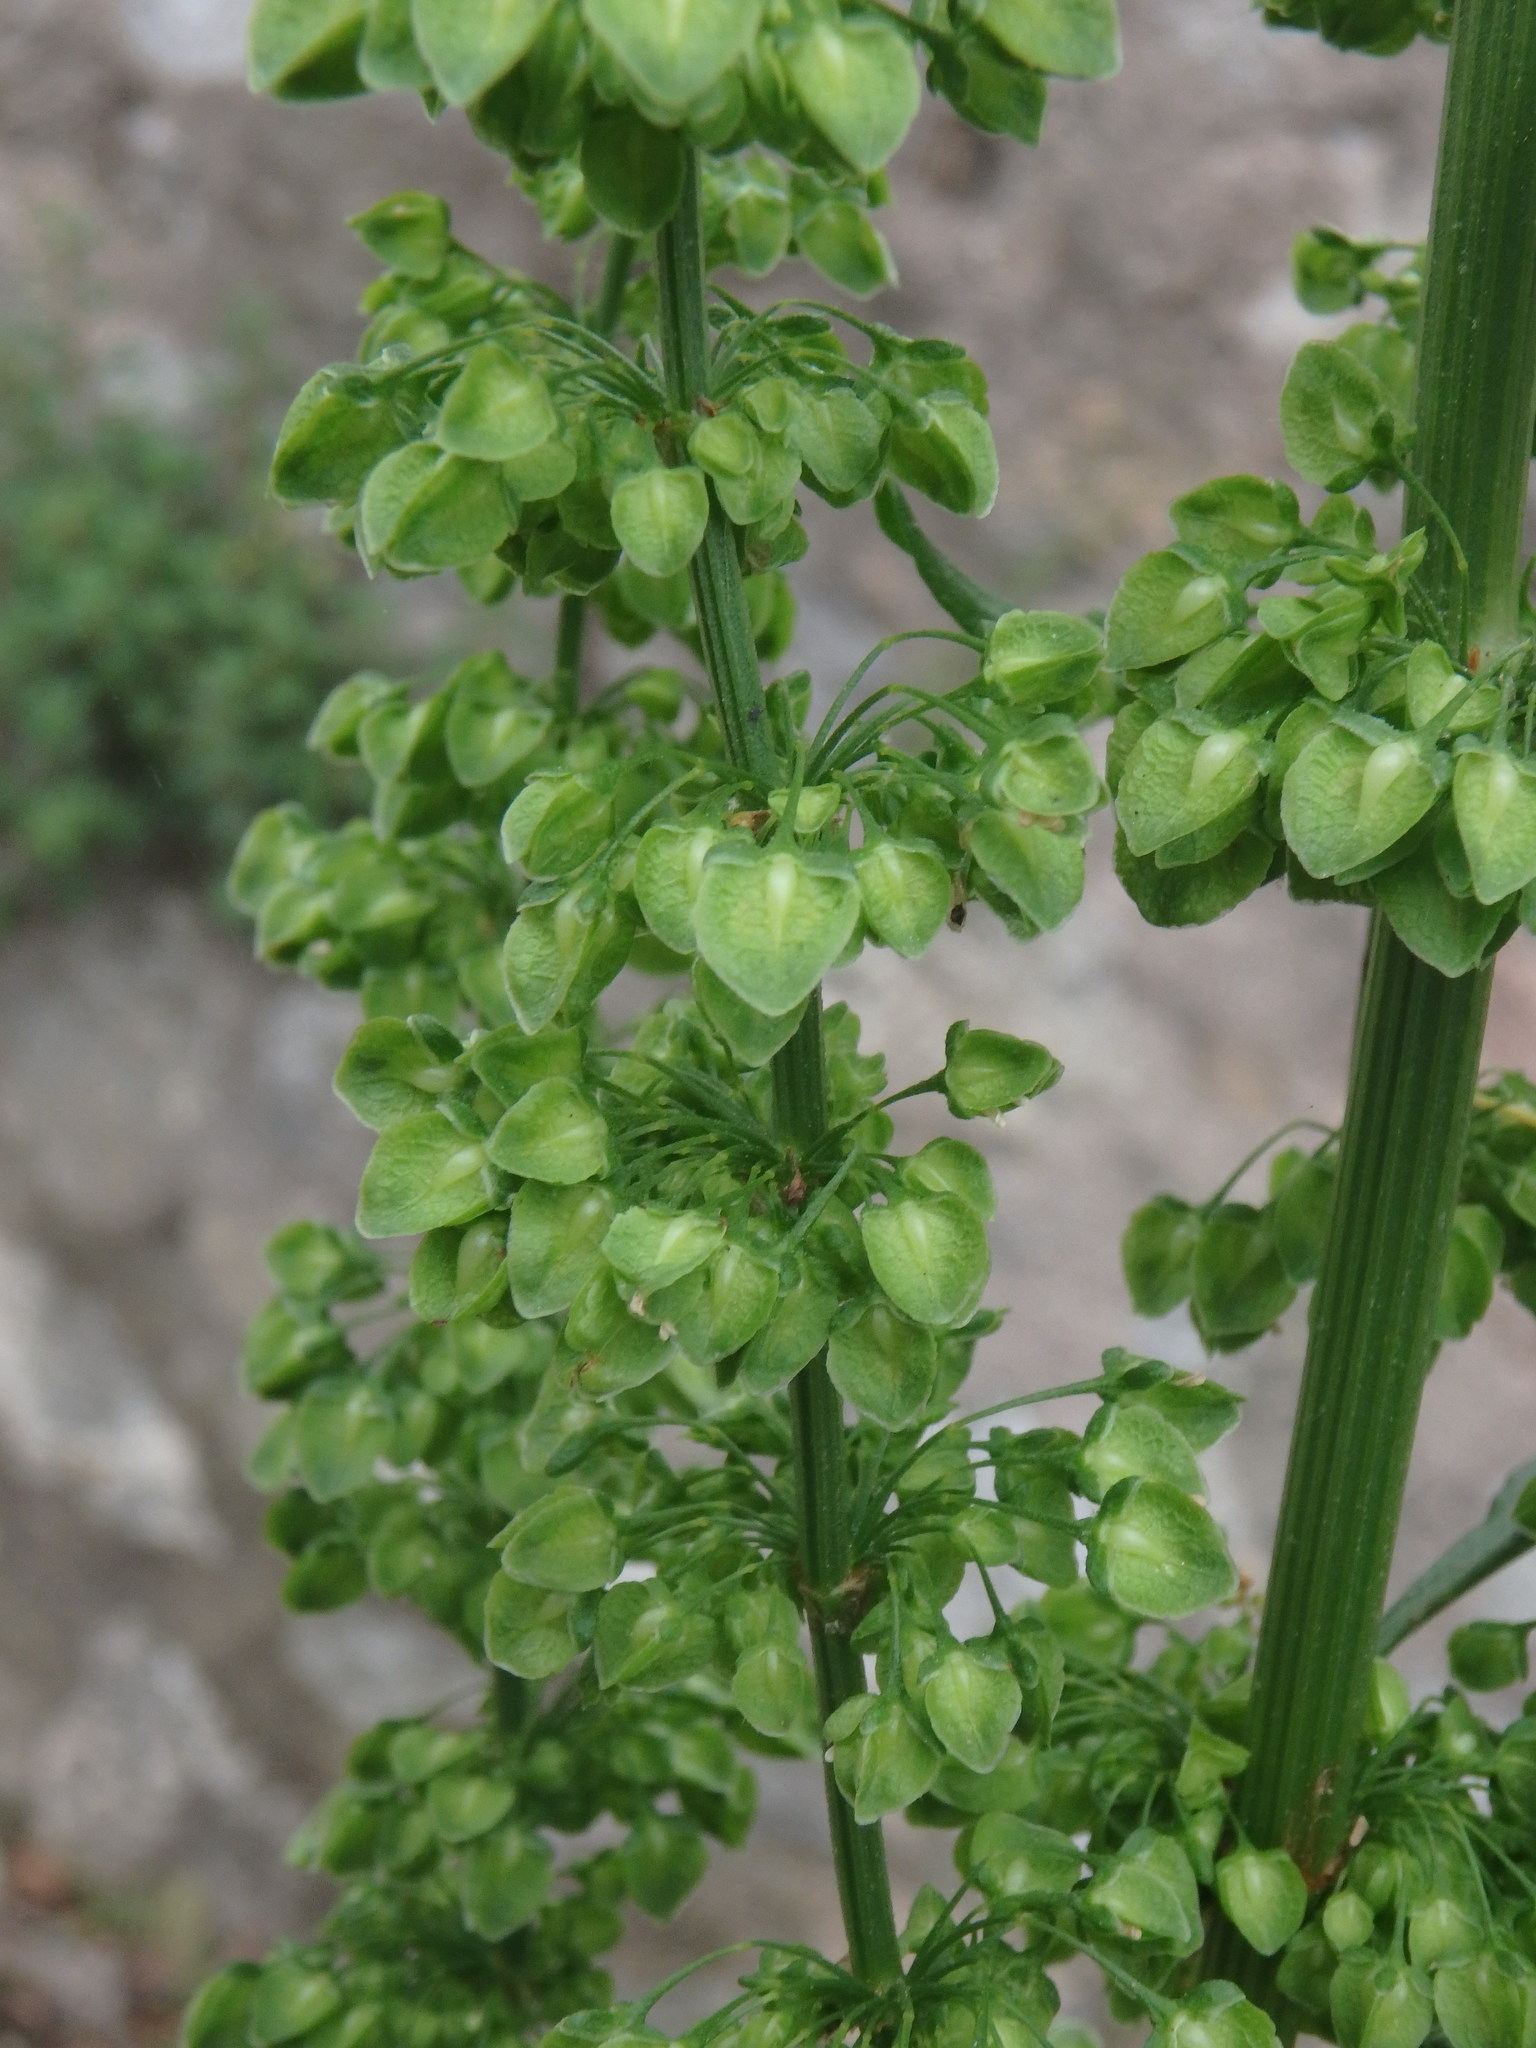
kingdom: Plantae
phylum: Tracheophyta
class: Magnoliopsida
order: Caryophyllales
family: Polygonaceae
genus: Rumex
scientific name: Rumex crispus
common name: Curled dock
